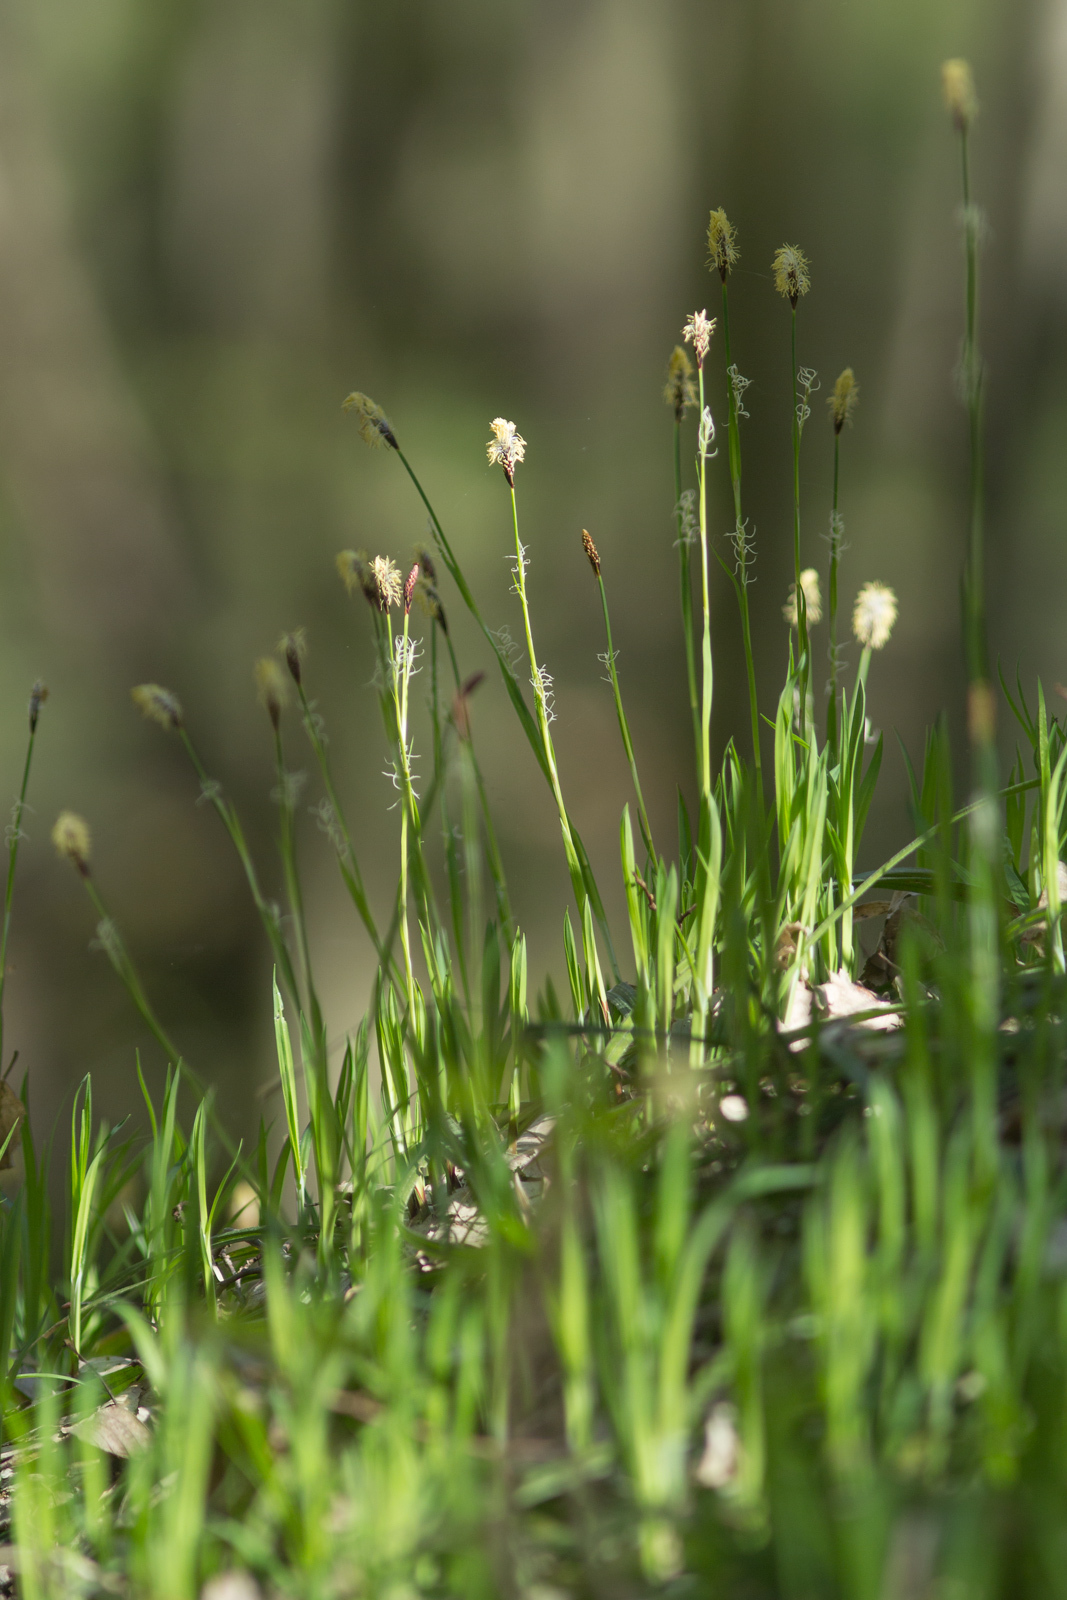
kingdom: Plantae
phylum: Tracheophyta
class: Liliopsida
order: Poales
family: Cyperaceae
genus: Carex
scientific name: Carex pilosa
